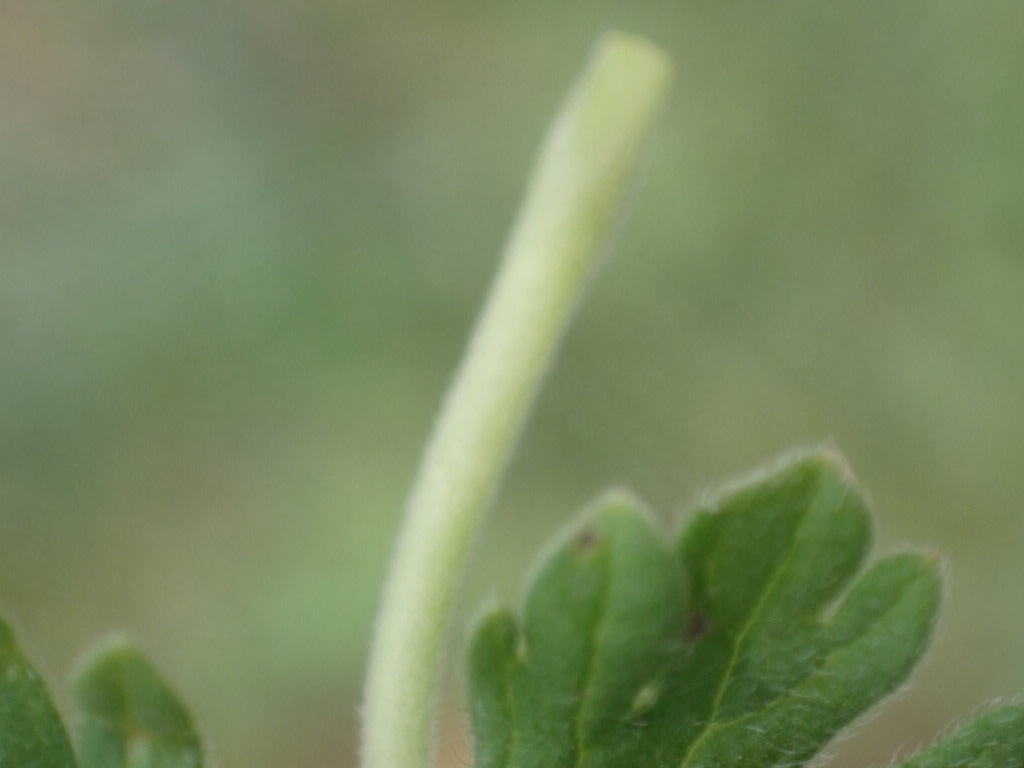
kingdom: Plantae
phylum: Tracheophyta
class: Magnoliopsida
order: Geraniales
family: Geraniaceae
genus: Geranium
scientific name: Geranium pusillum
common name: Small geranium
